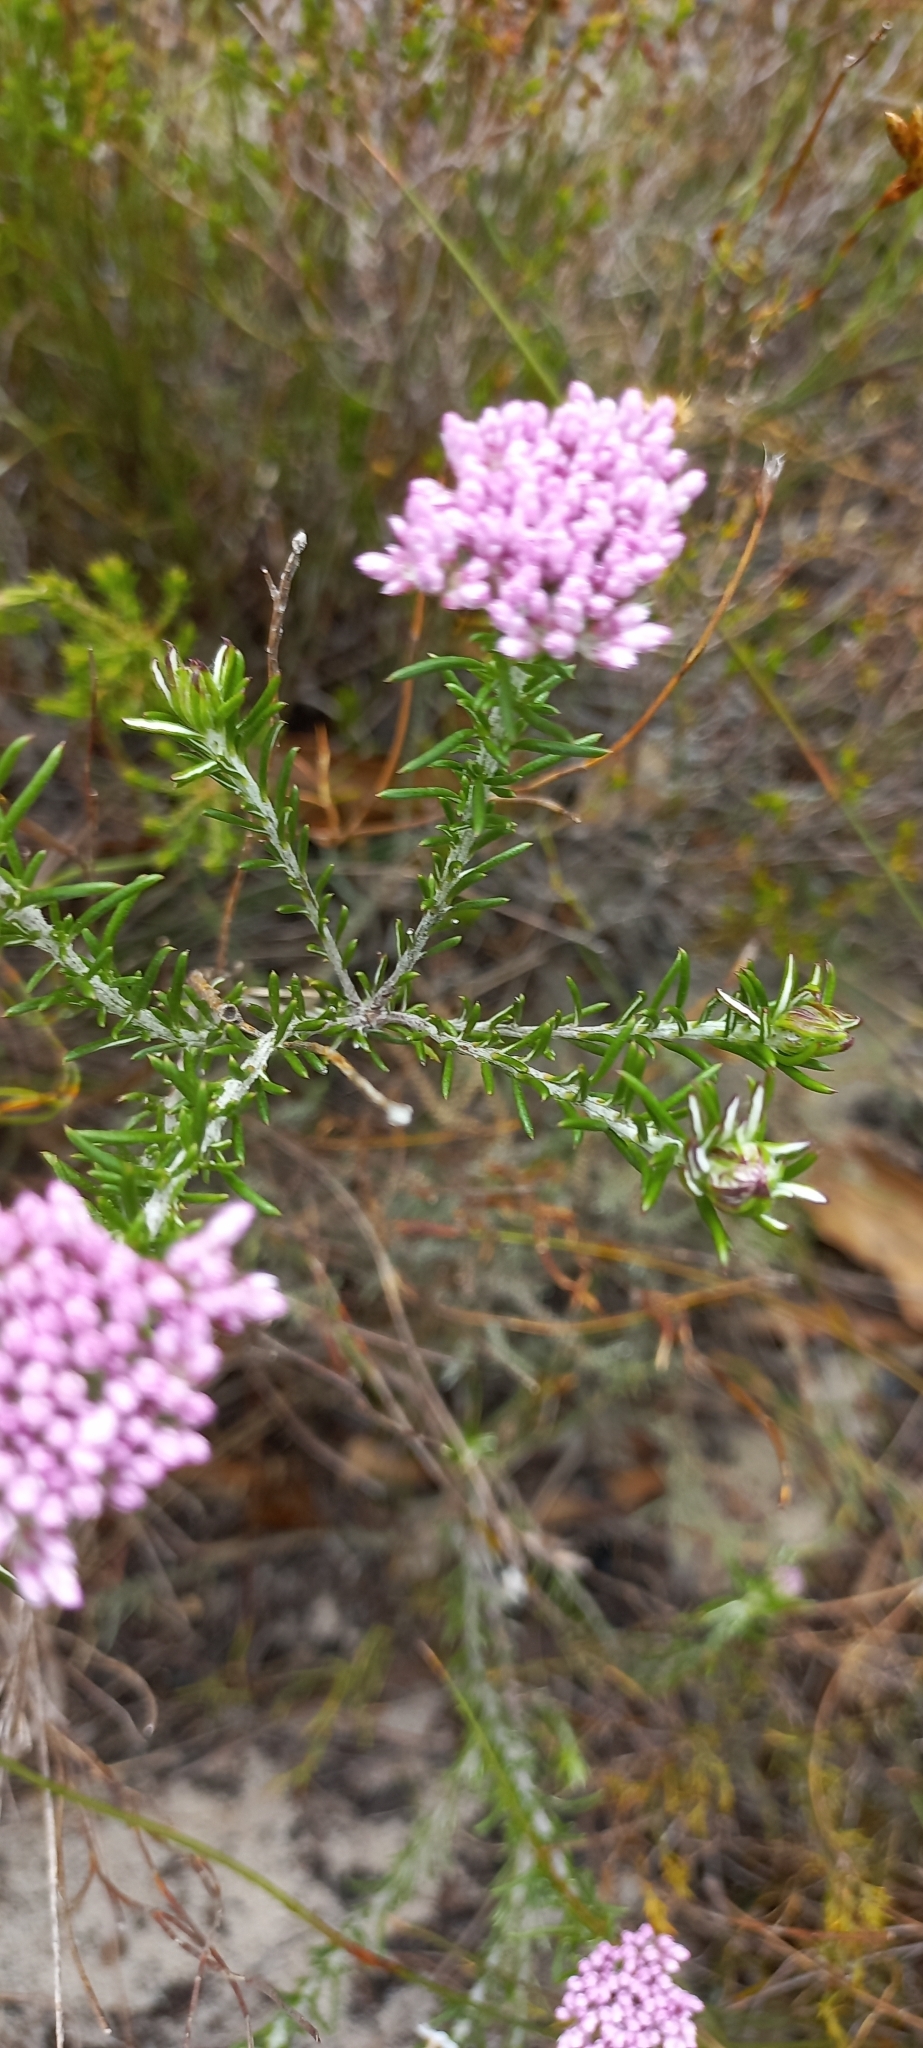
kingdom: Plantae
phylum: Tracheophyta
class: Magnoliopsida
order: Asterales
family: Asteraceae
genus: Metalasia
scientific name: Metalasia erubescens
